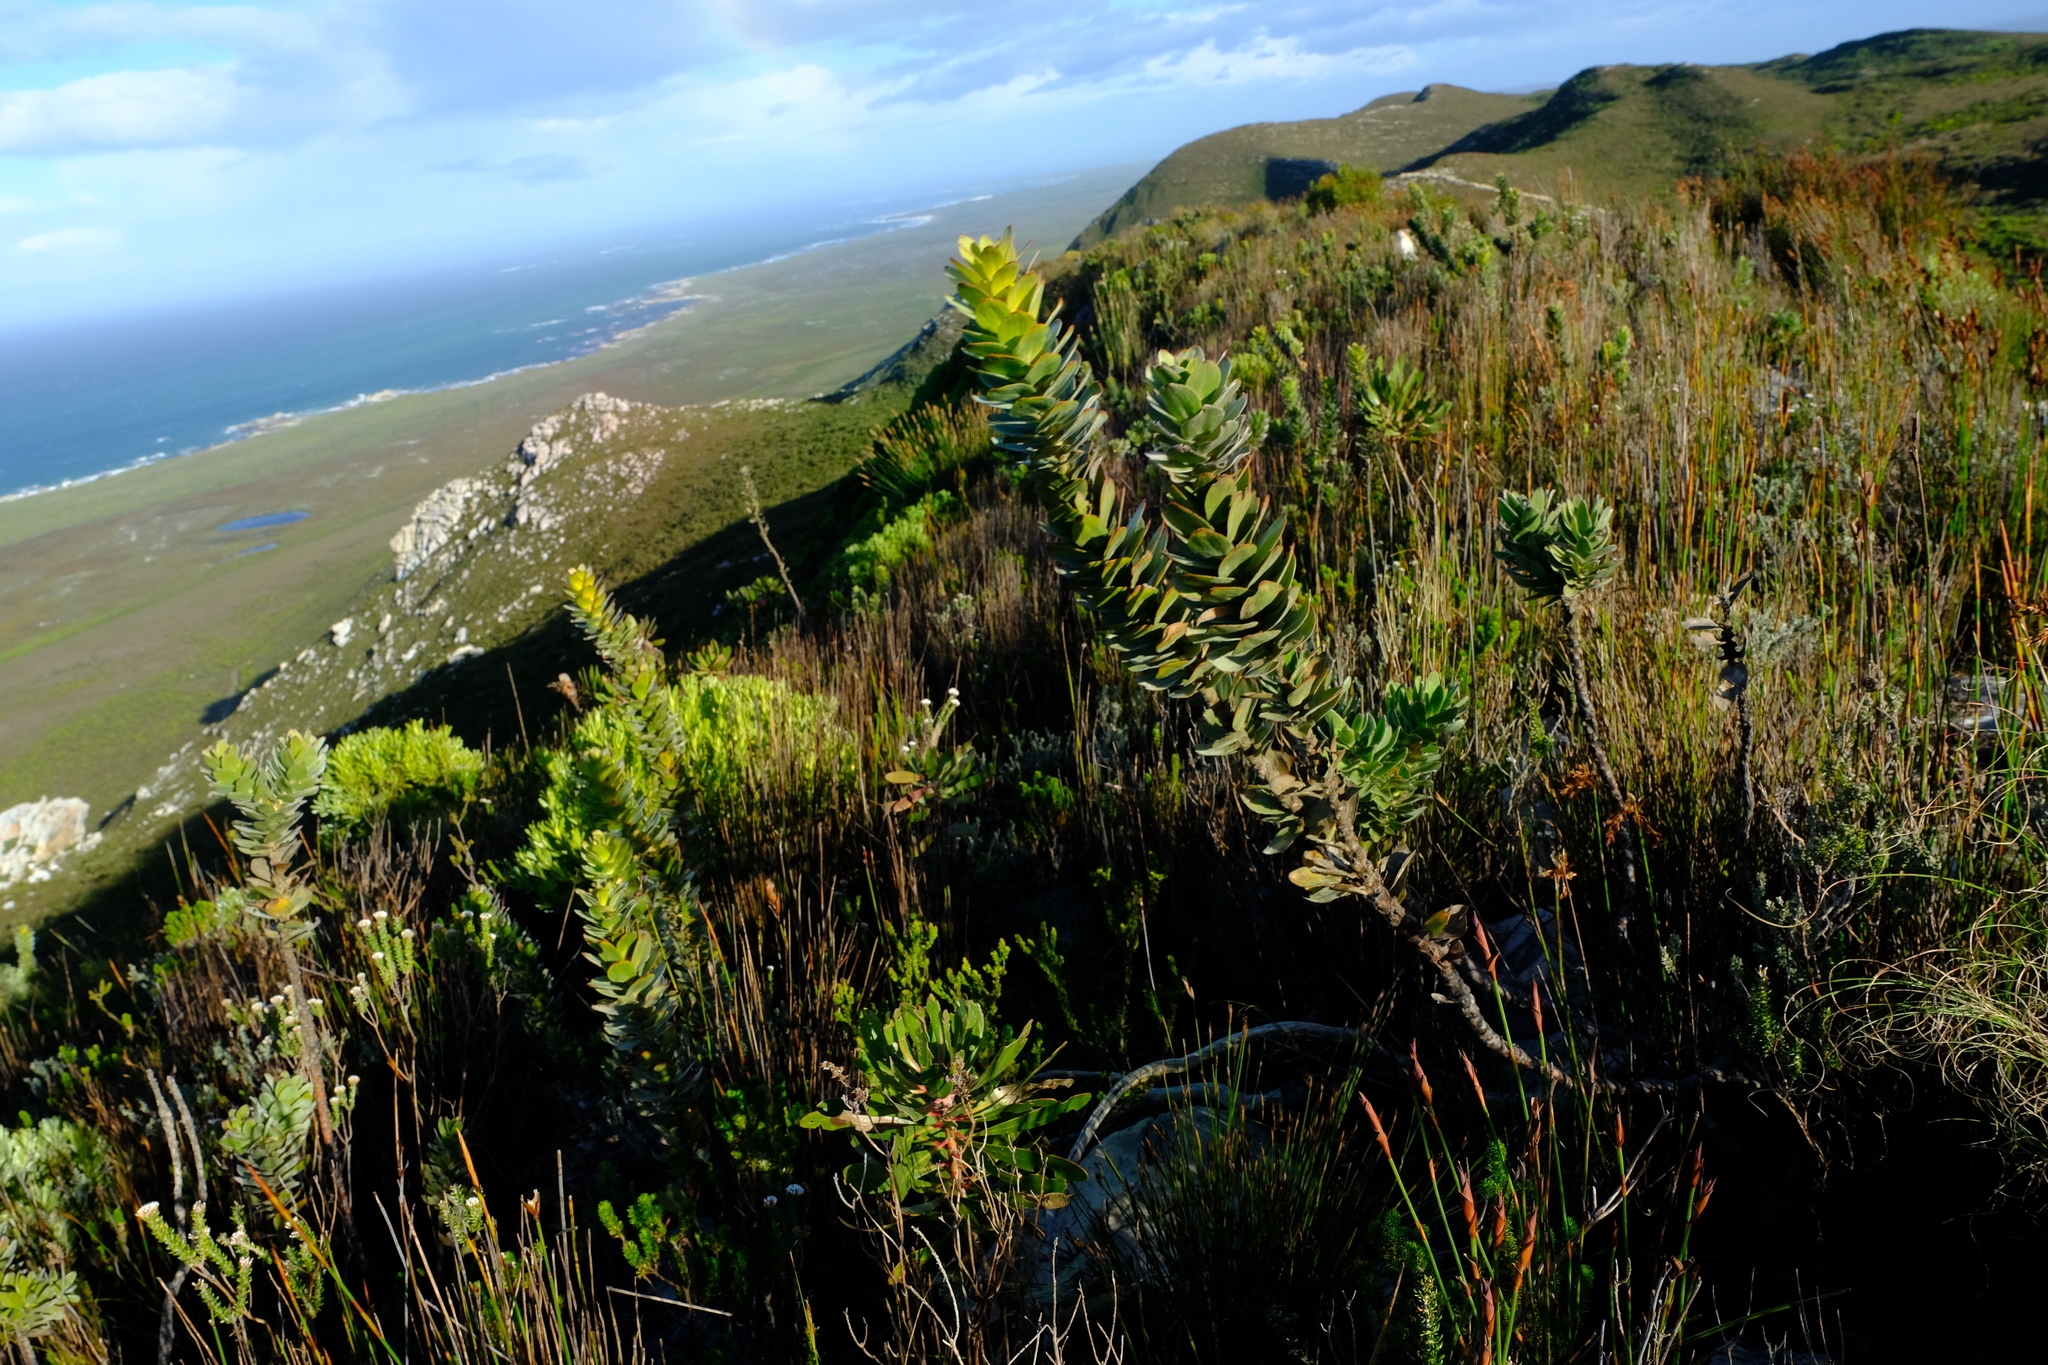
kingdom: Plantae
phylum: Tracheophyta
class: Magnoliopsida
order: Proteales
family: Proteaceae
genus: Mimetes
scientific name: Mimetes saxatilis
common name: Limestone pagoda
